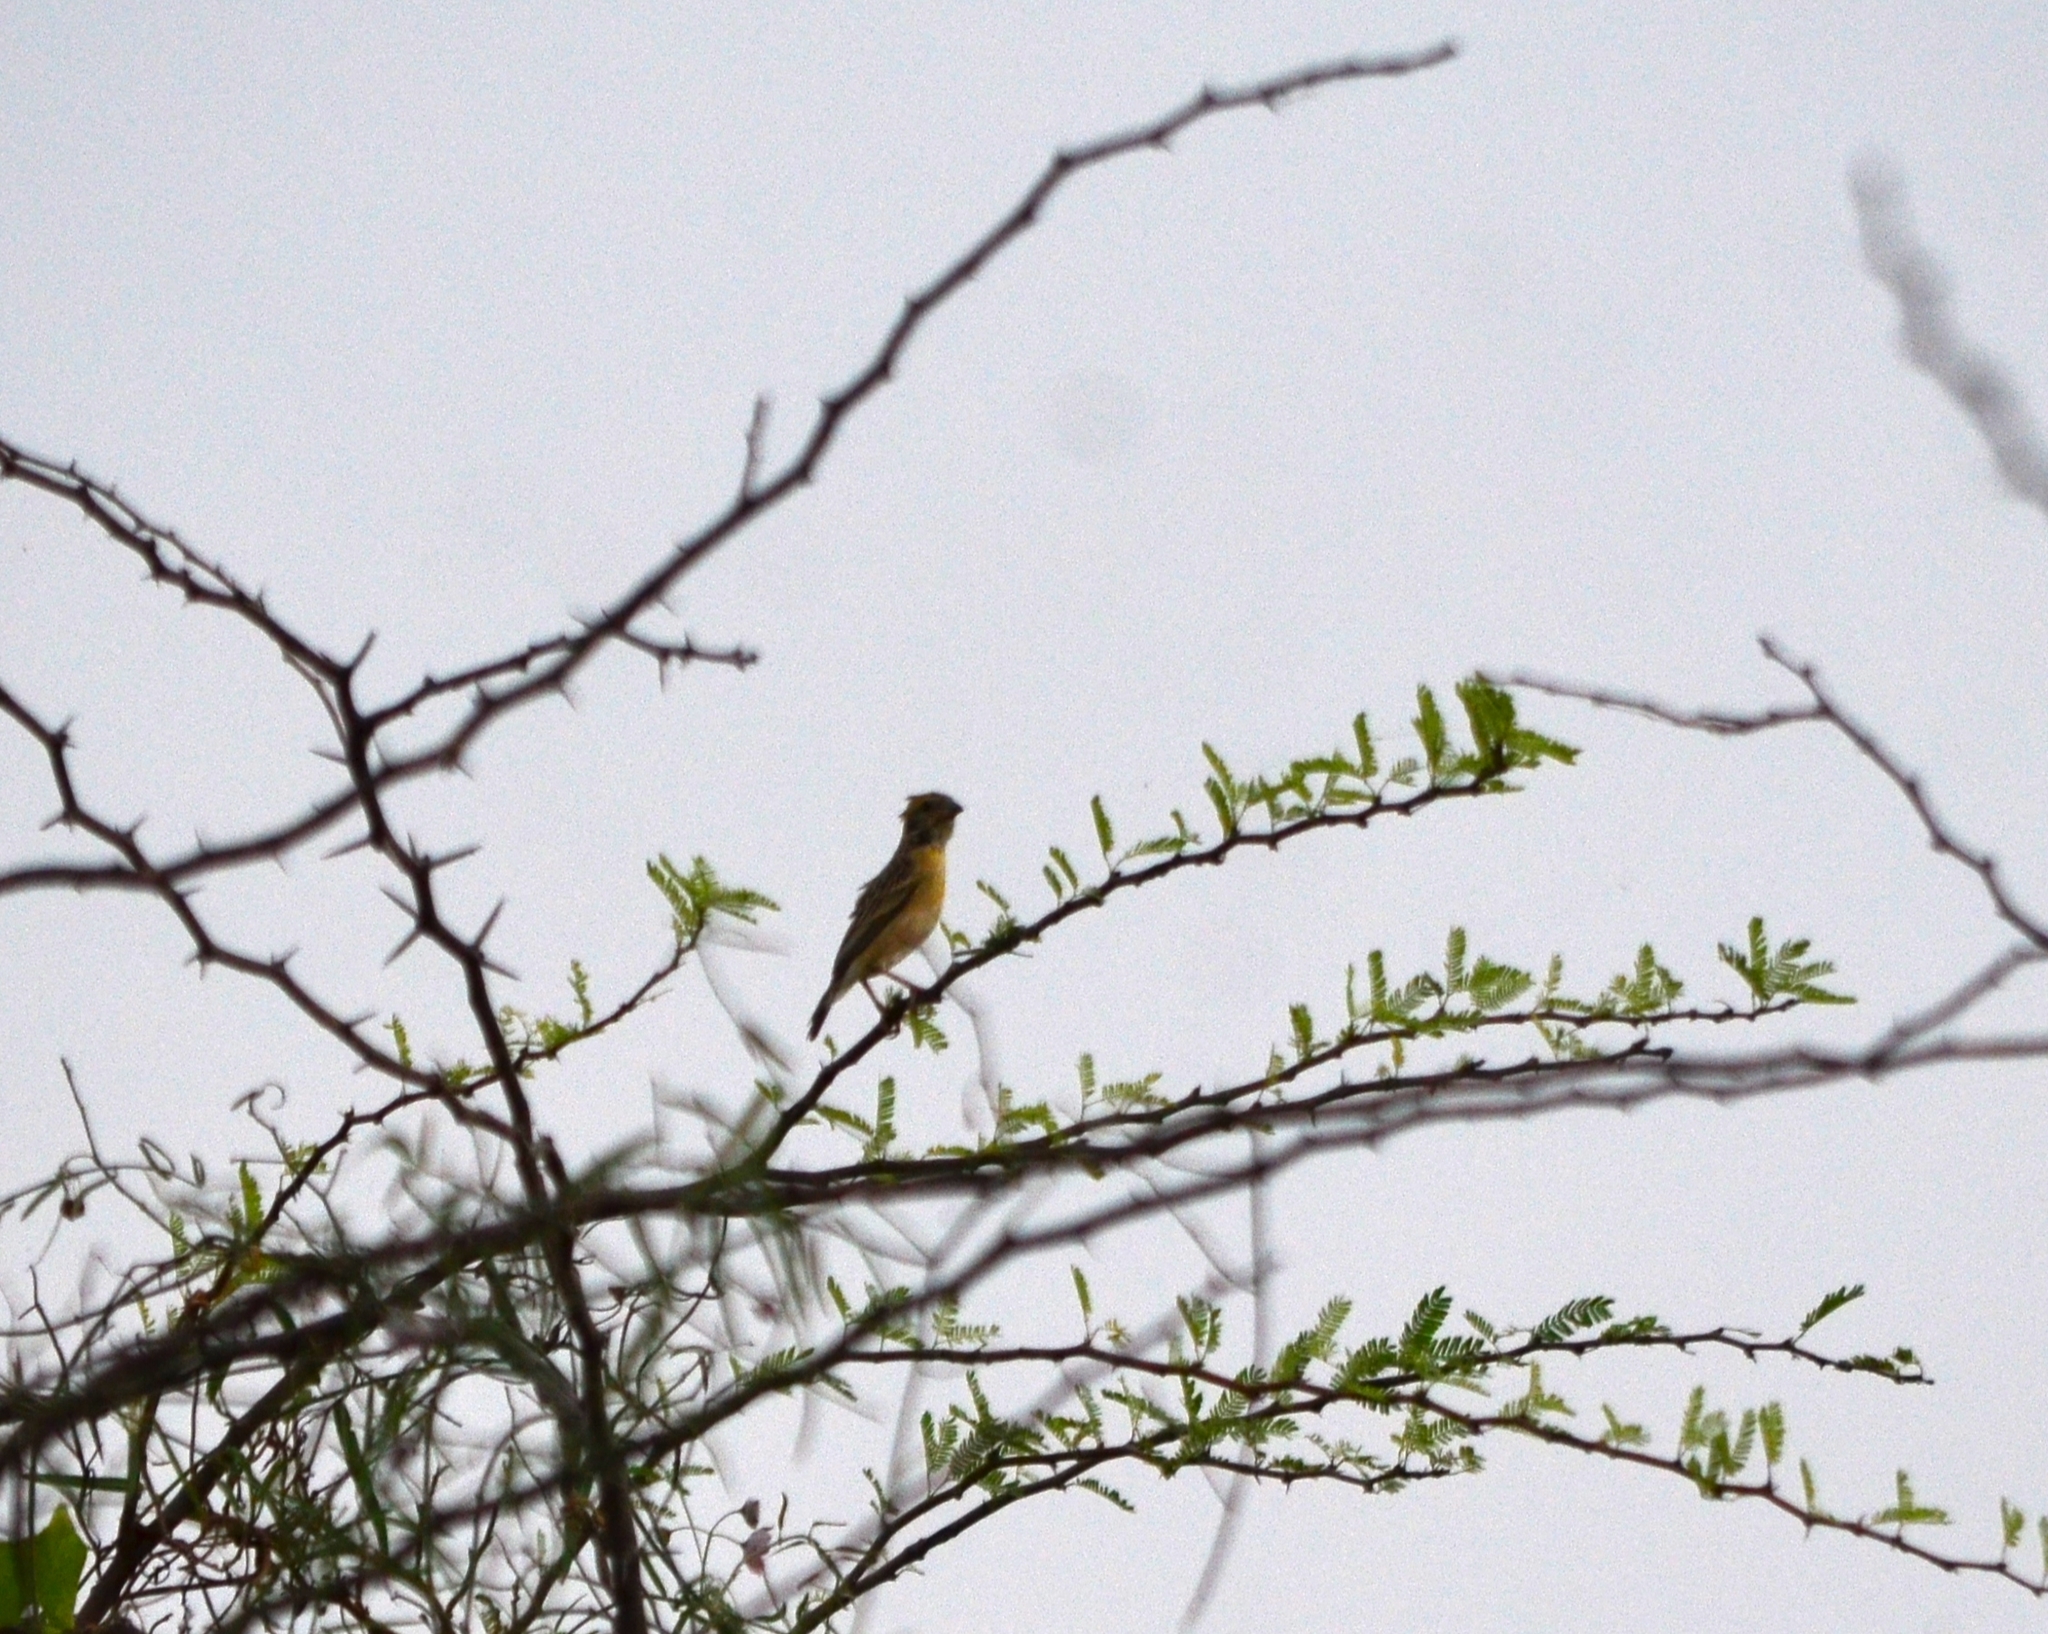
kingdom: Animalia
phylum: Chordata
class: Aves
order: Passeriformes
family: Ploceidae
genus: Ploceus
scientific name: Ploceus philippinus
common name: Baya weaver
